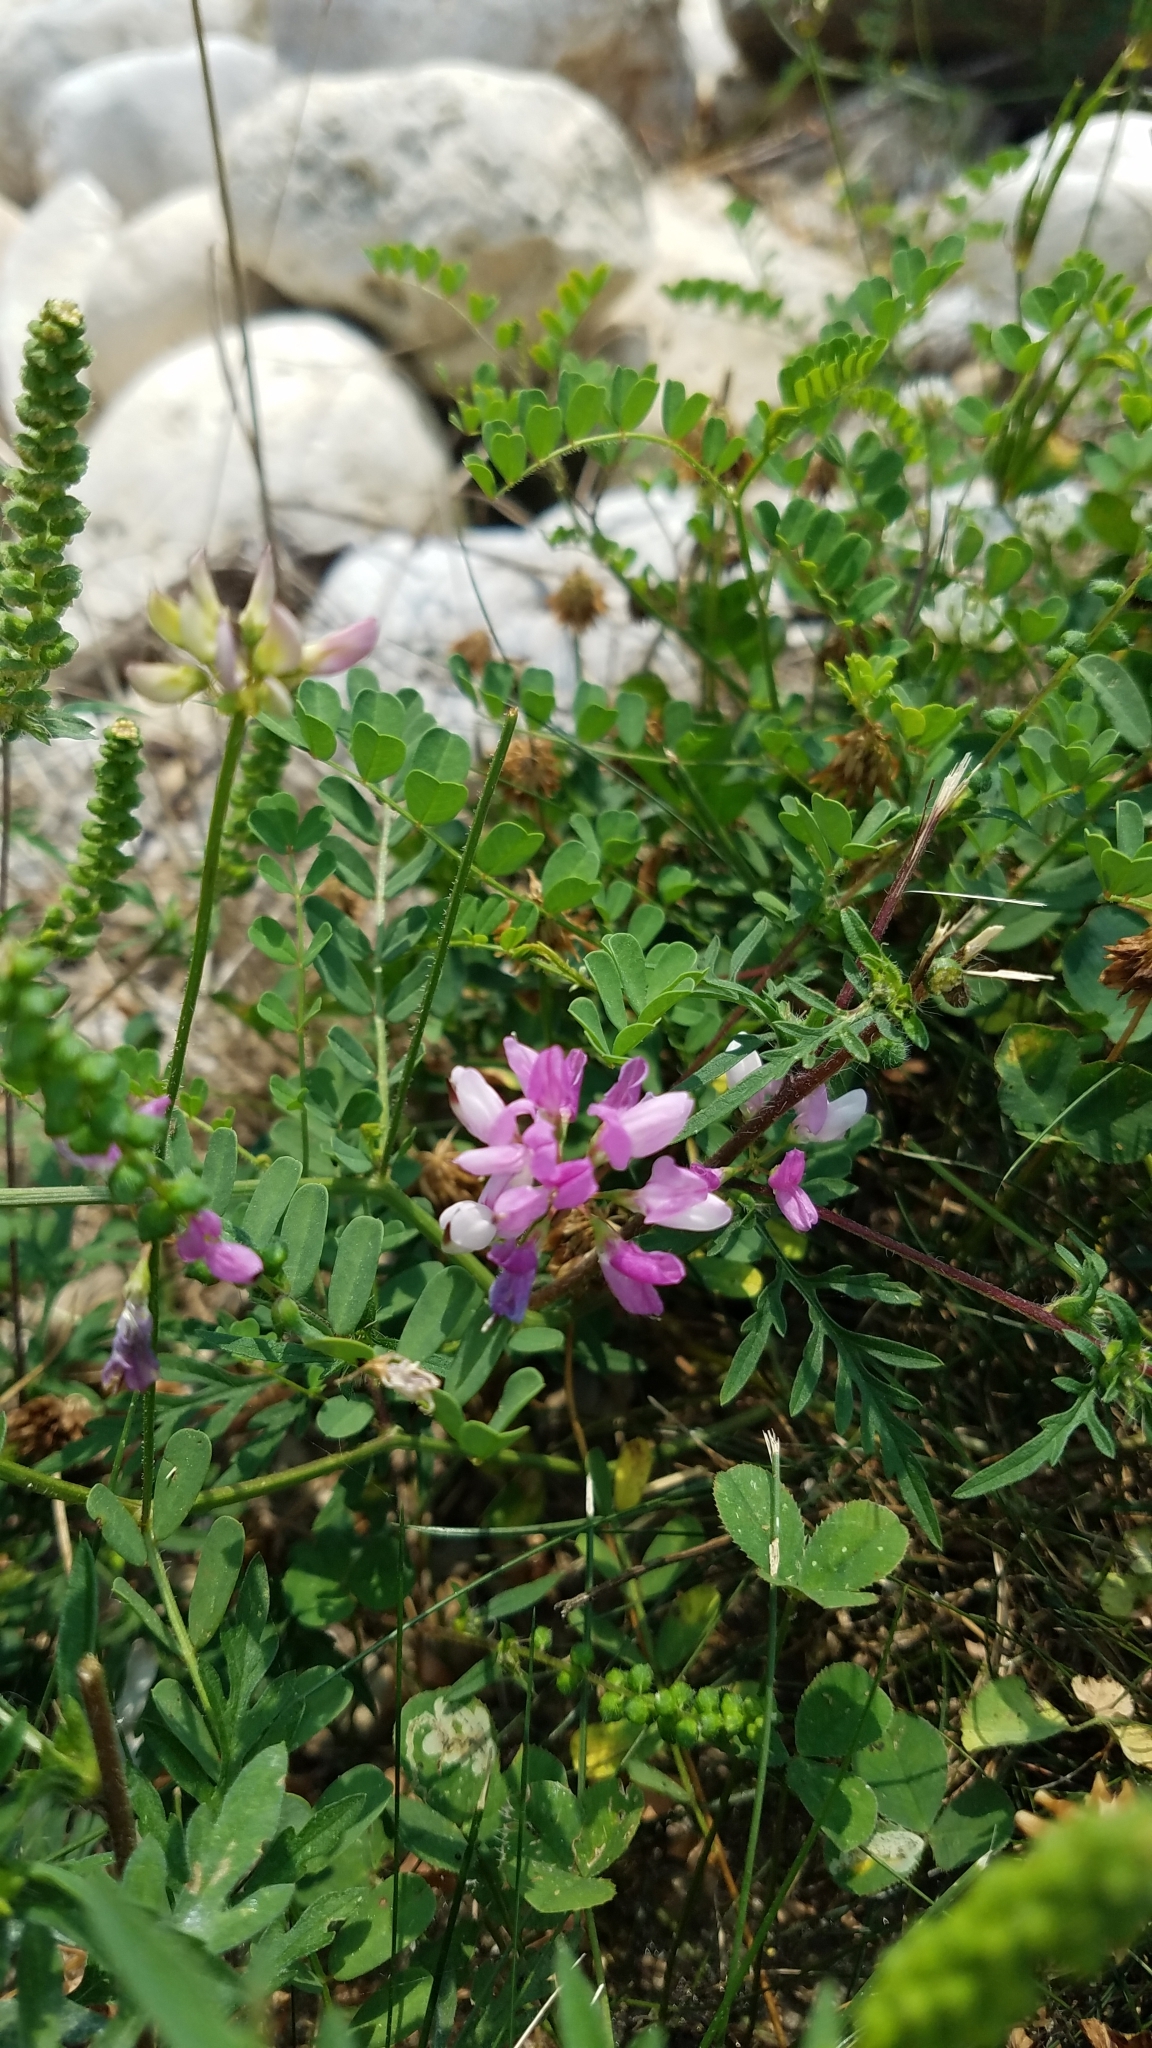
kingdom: Plantae
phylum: Tracheophyta
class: Magnoliopsida
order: Fabales
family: Fabaceae
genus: Coronilla
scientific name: Coronilla varia
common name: Crownvetch
